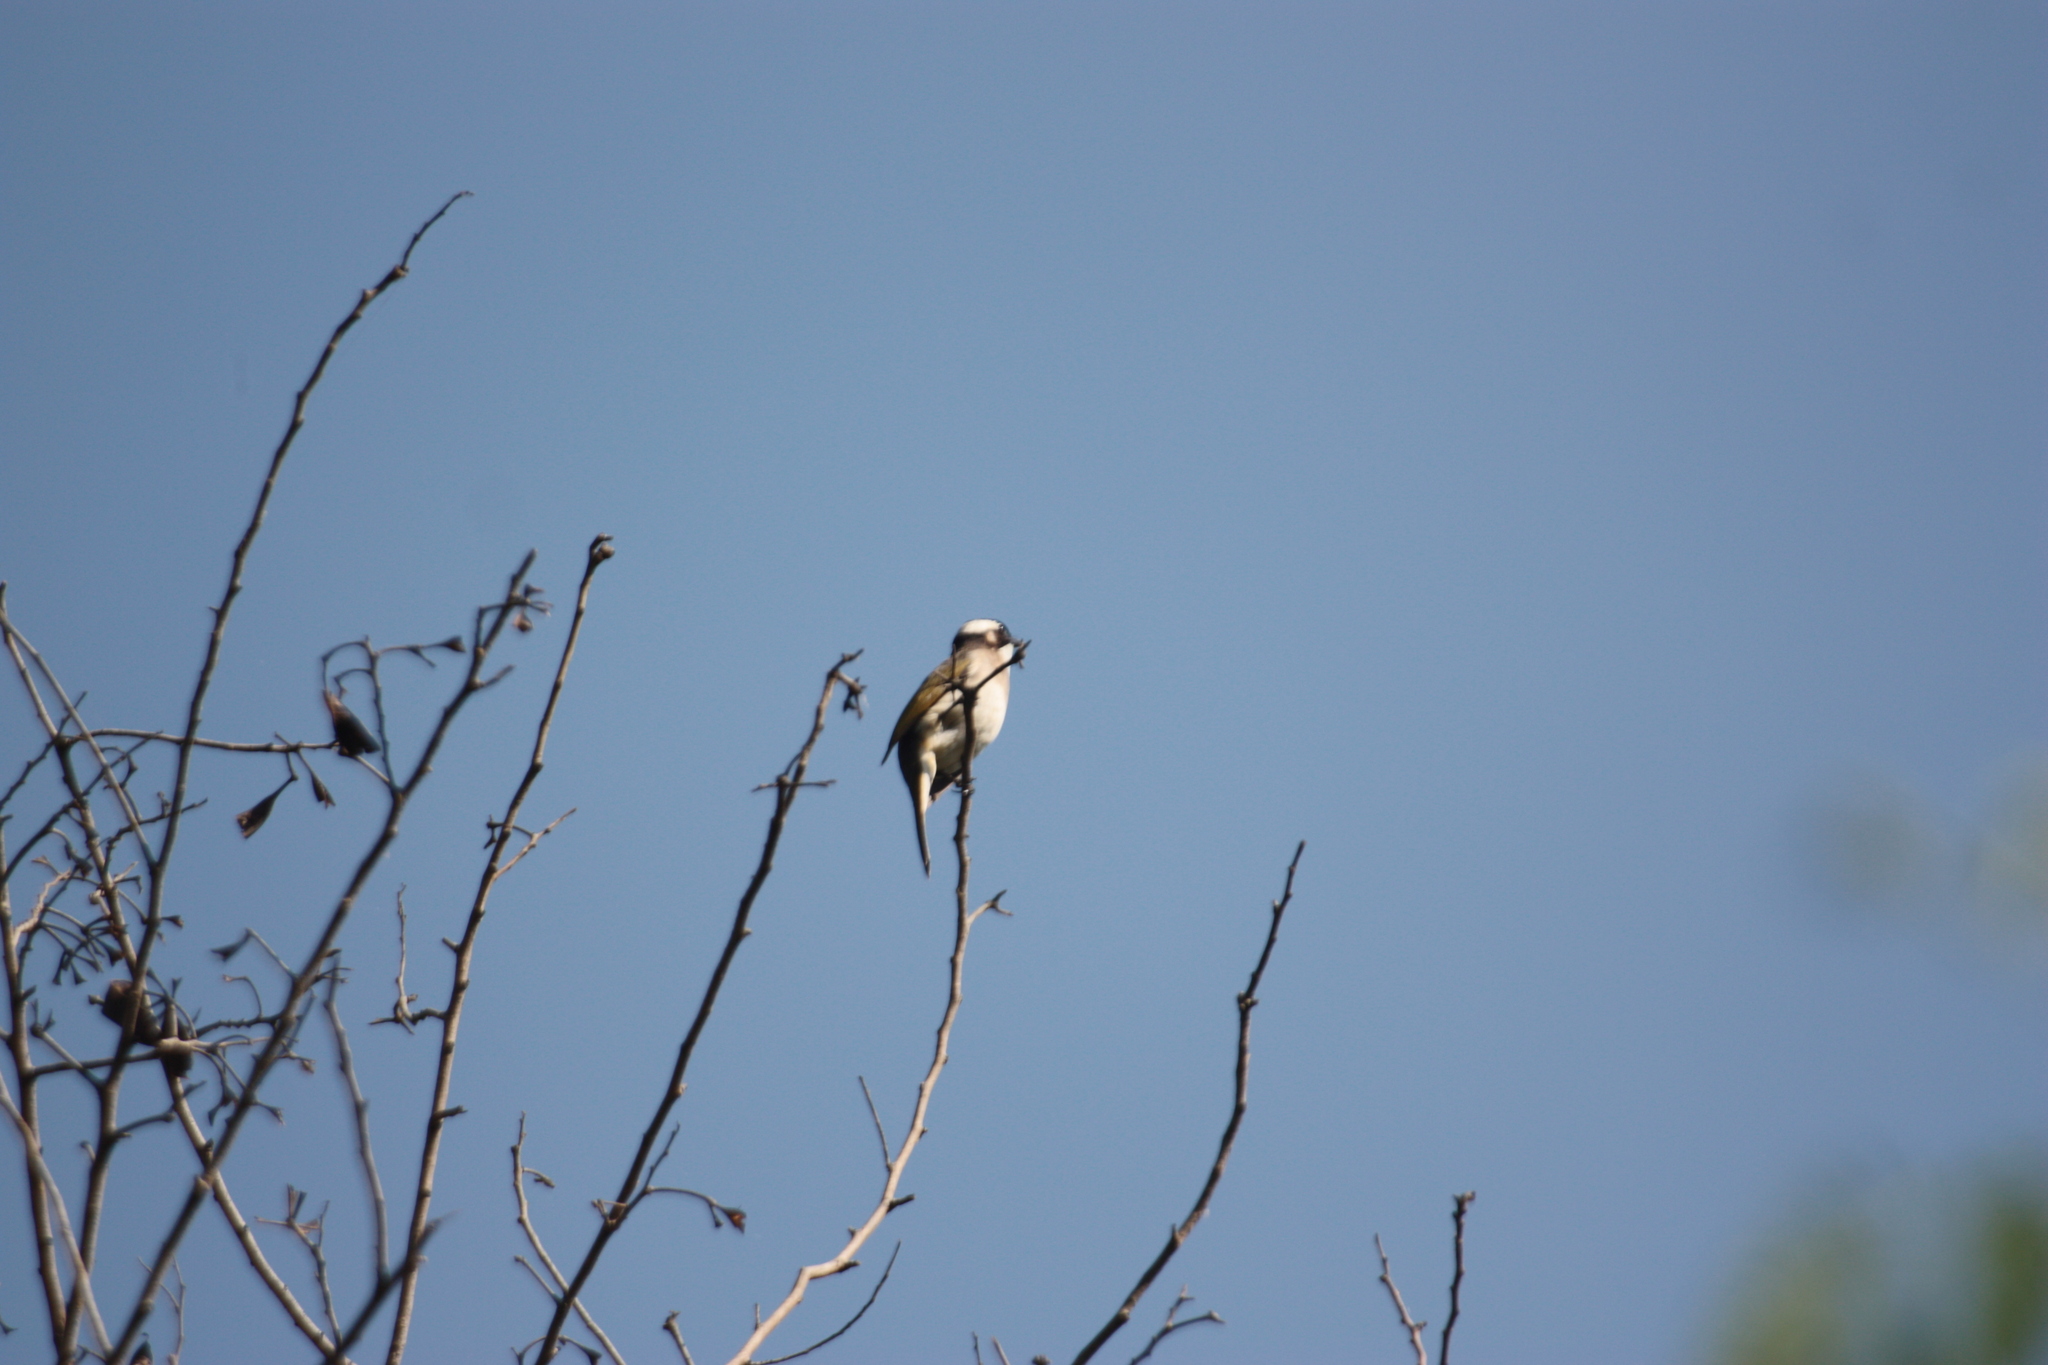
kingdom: Animalia
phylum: Chordata
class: Aves
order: Passeriformes
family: Pycnonotidae
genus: Pycnonotus
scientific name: Pycnonotus sinensis
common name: Light-vented bulbul
